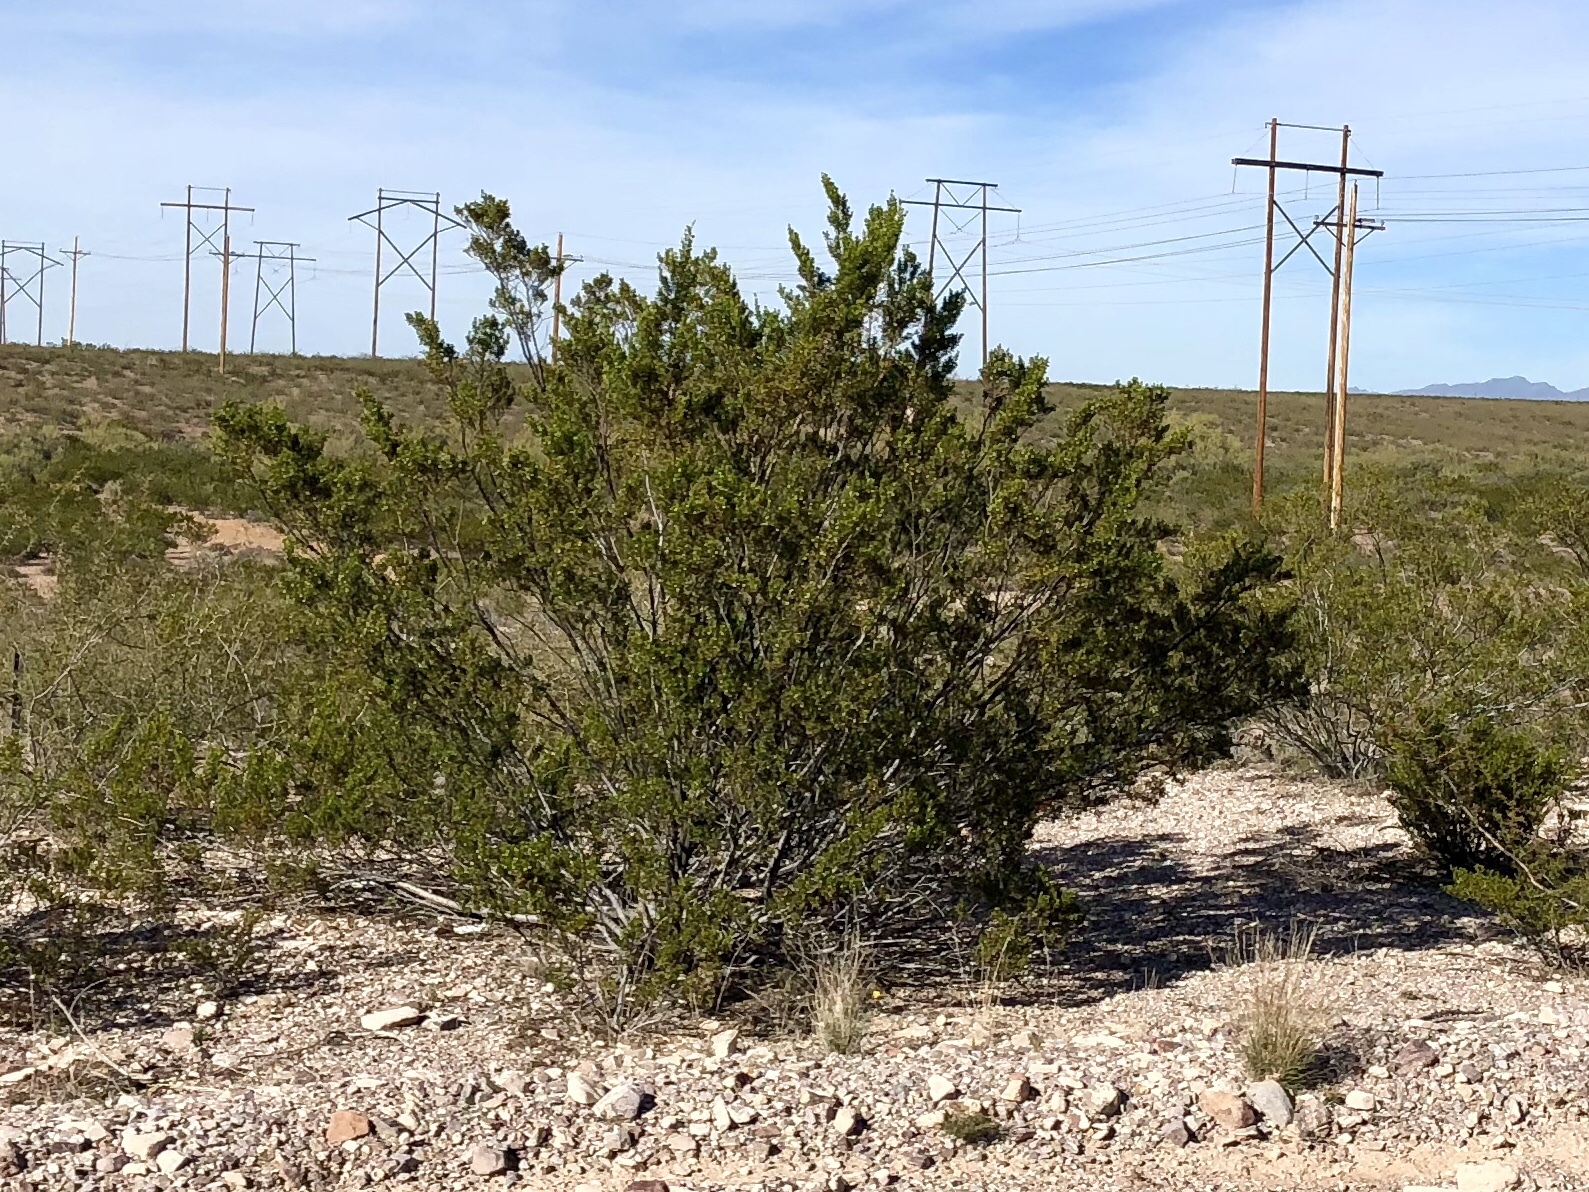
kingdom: Plantae
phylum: Tracheophyta
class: Magnoliopsida
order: Zygophyllales
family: Zygophyllaceae
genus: Larrea
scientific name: Larrea tridentata
